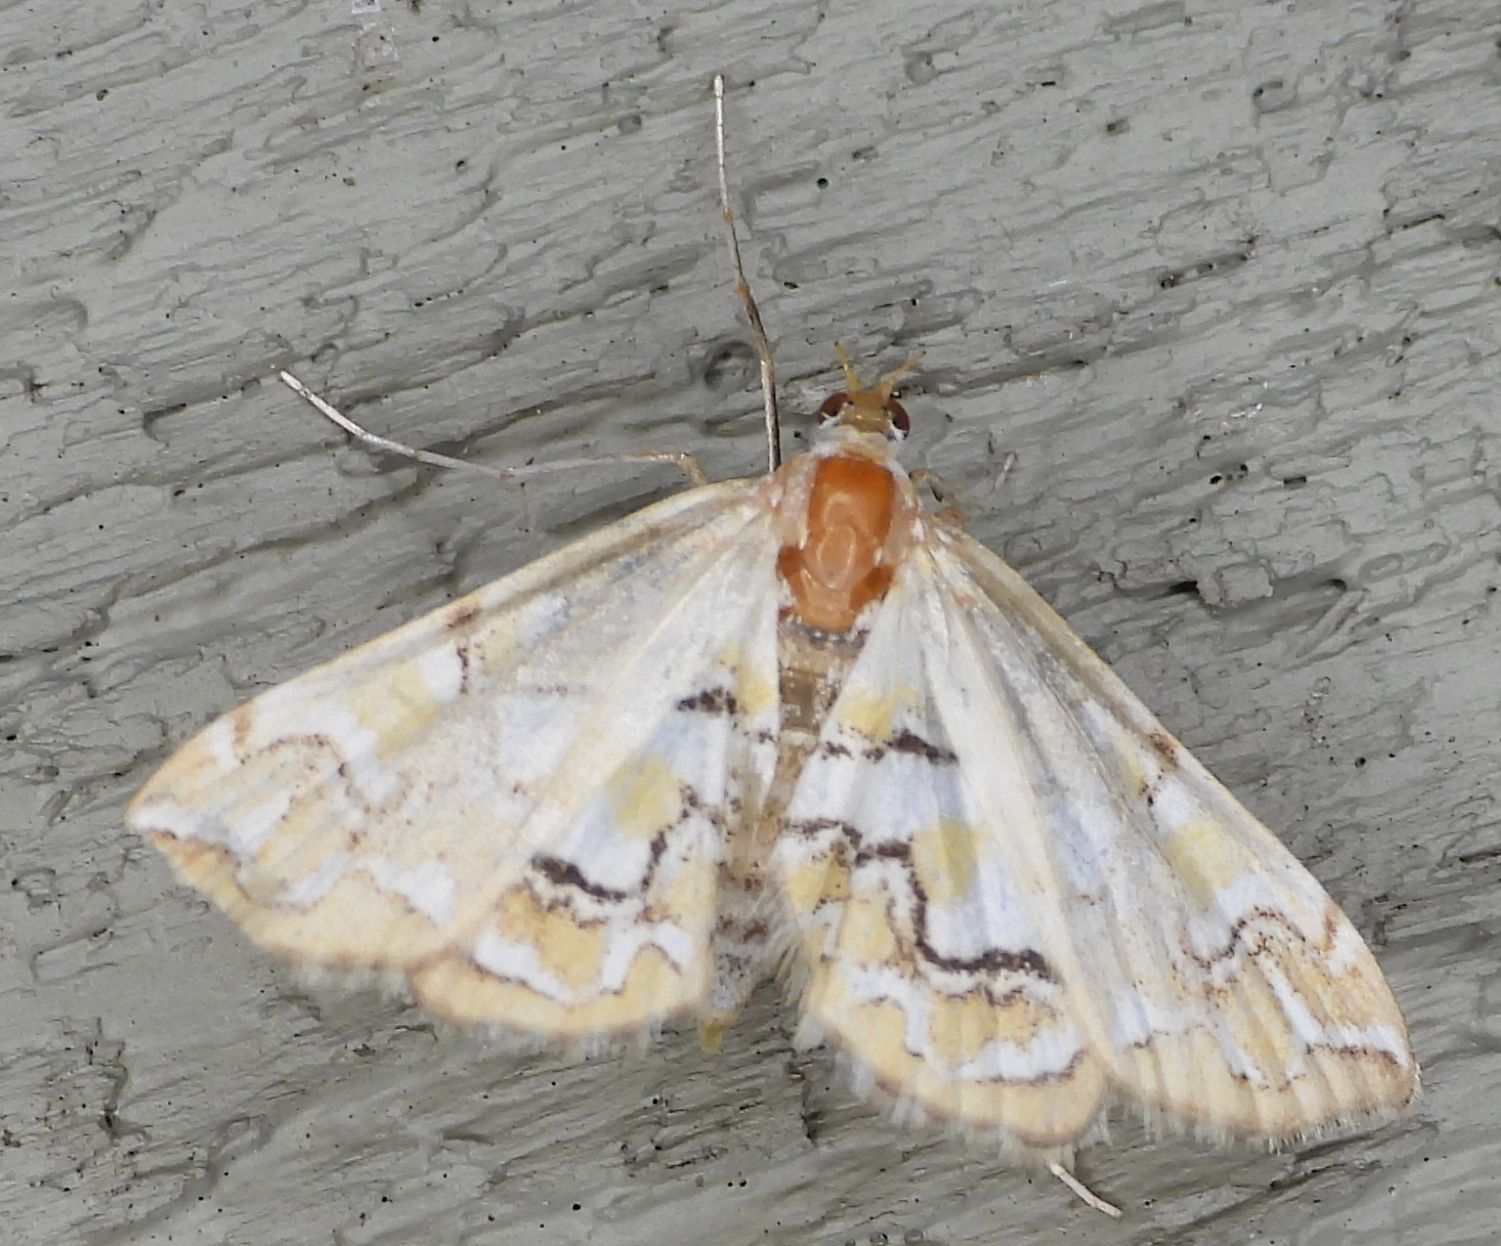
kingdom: Animalia
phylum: Arthropoda
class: Insecta
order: Lepidoptera
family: Crambidae
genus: Elophila
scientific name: Elophila icciusalis
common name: Pondside pyralid moth
